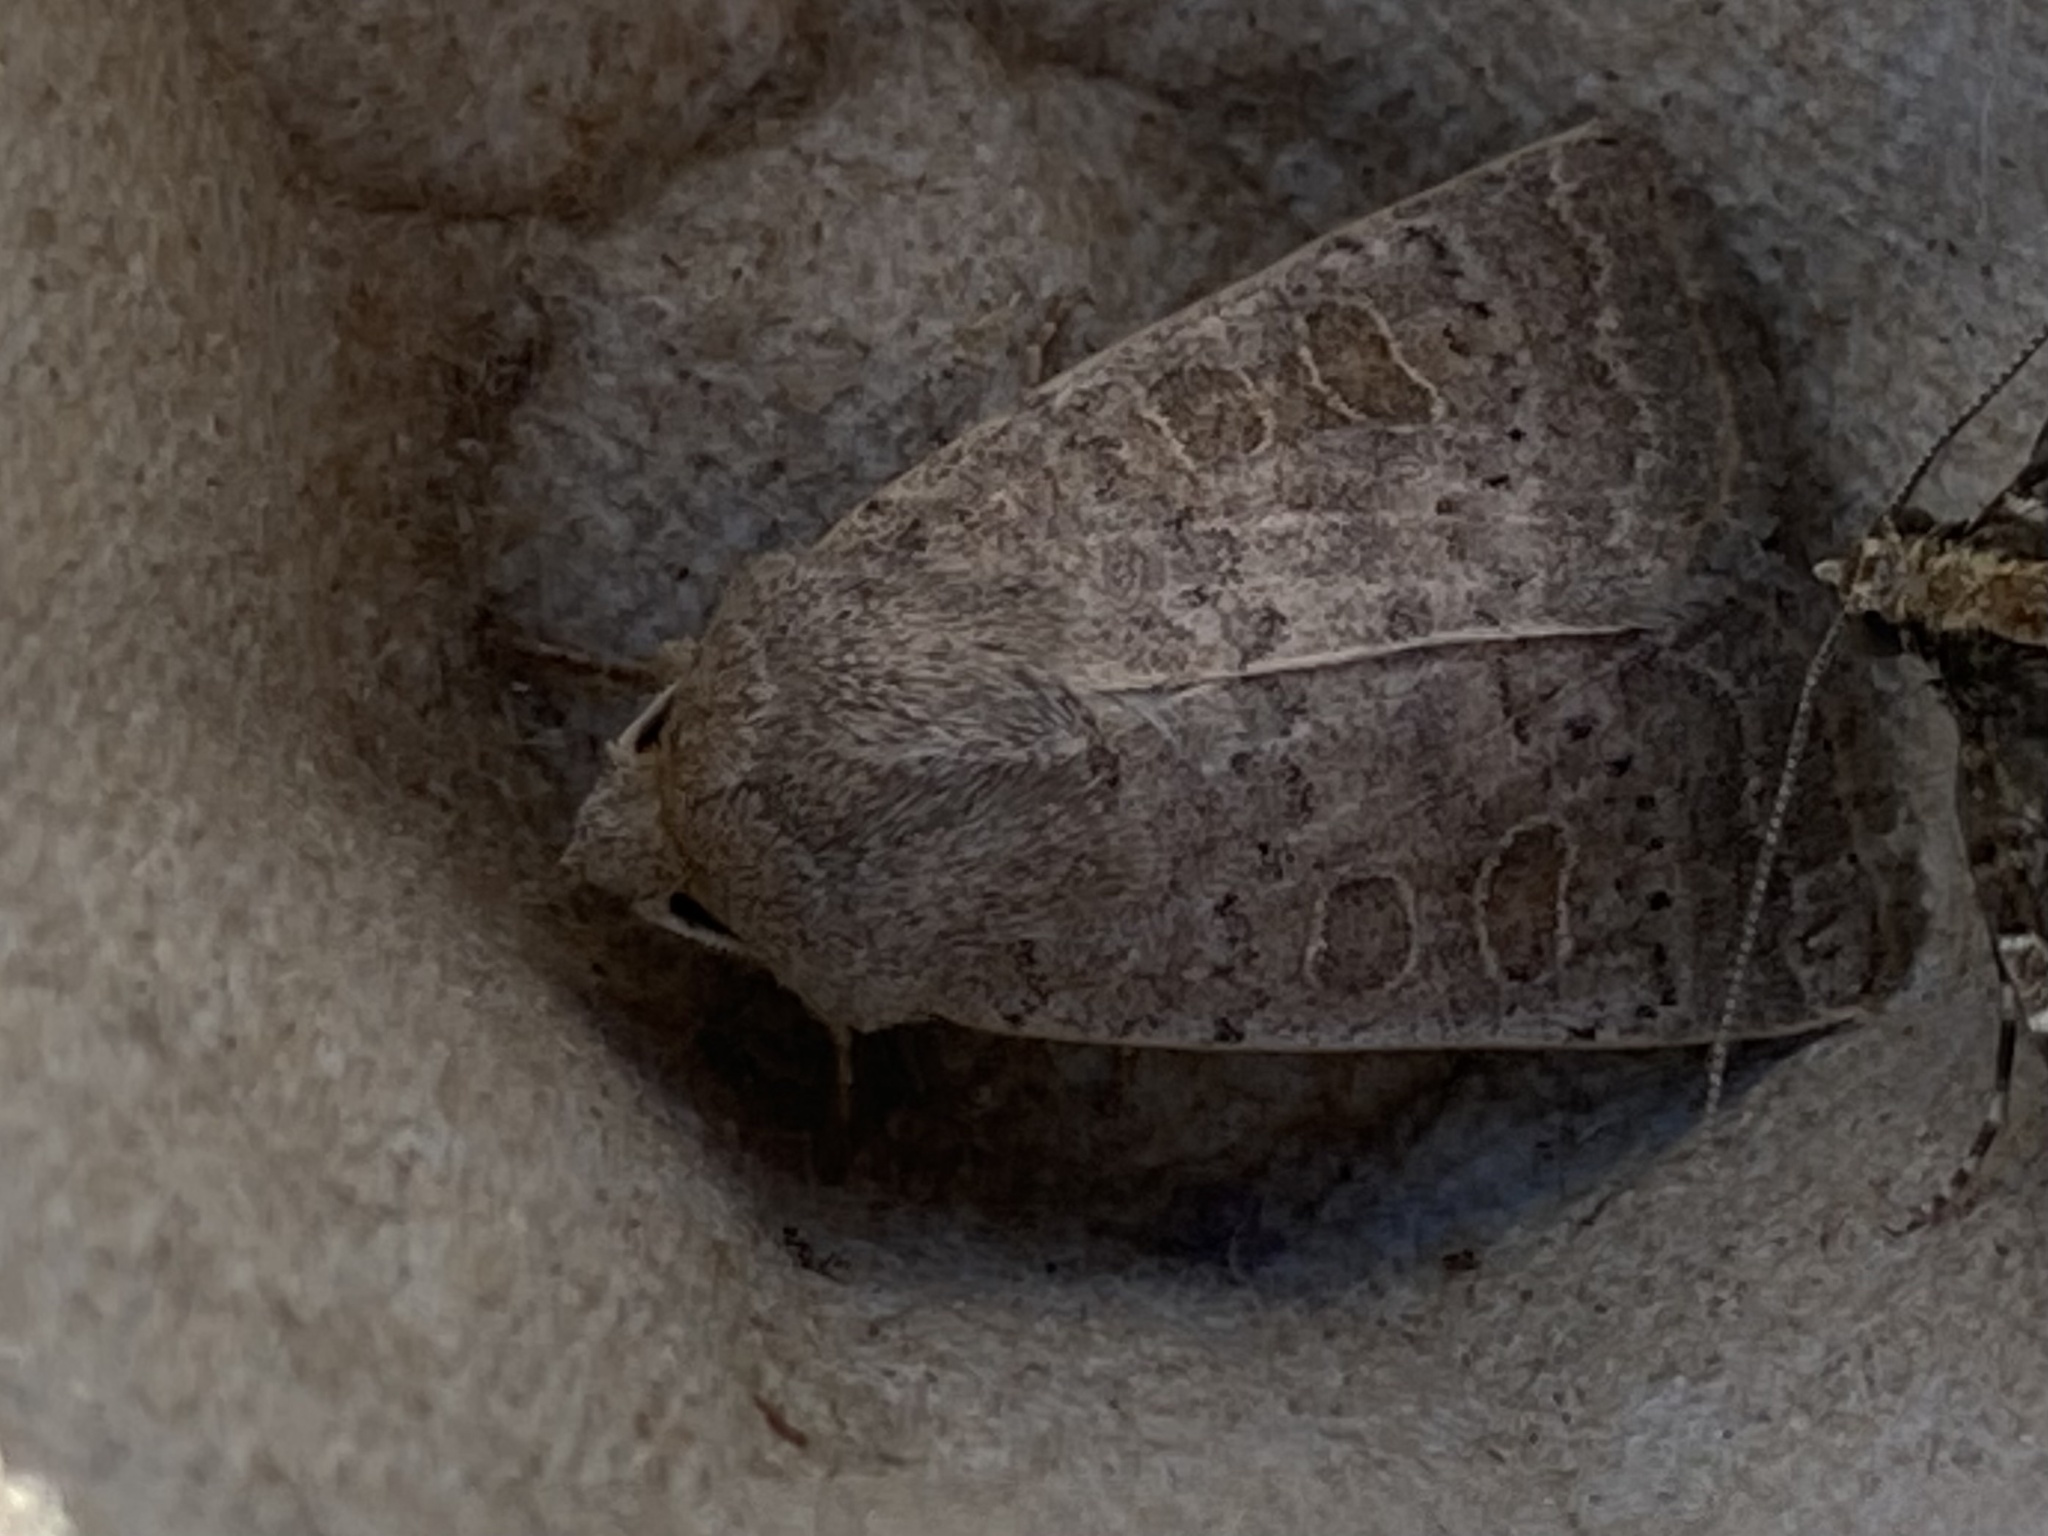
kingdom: Animalia
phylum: Arthropoda
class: Insecta
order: Lepidoptera
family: Noctuidae
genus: Hoplodrina
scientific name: Hoplodrina ambigua
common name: Vine's rustic
